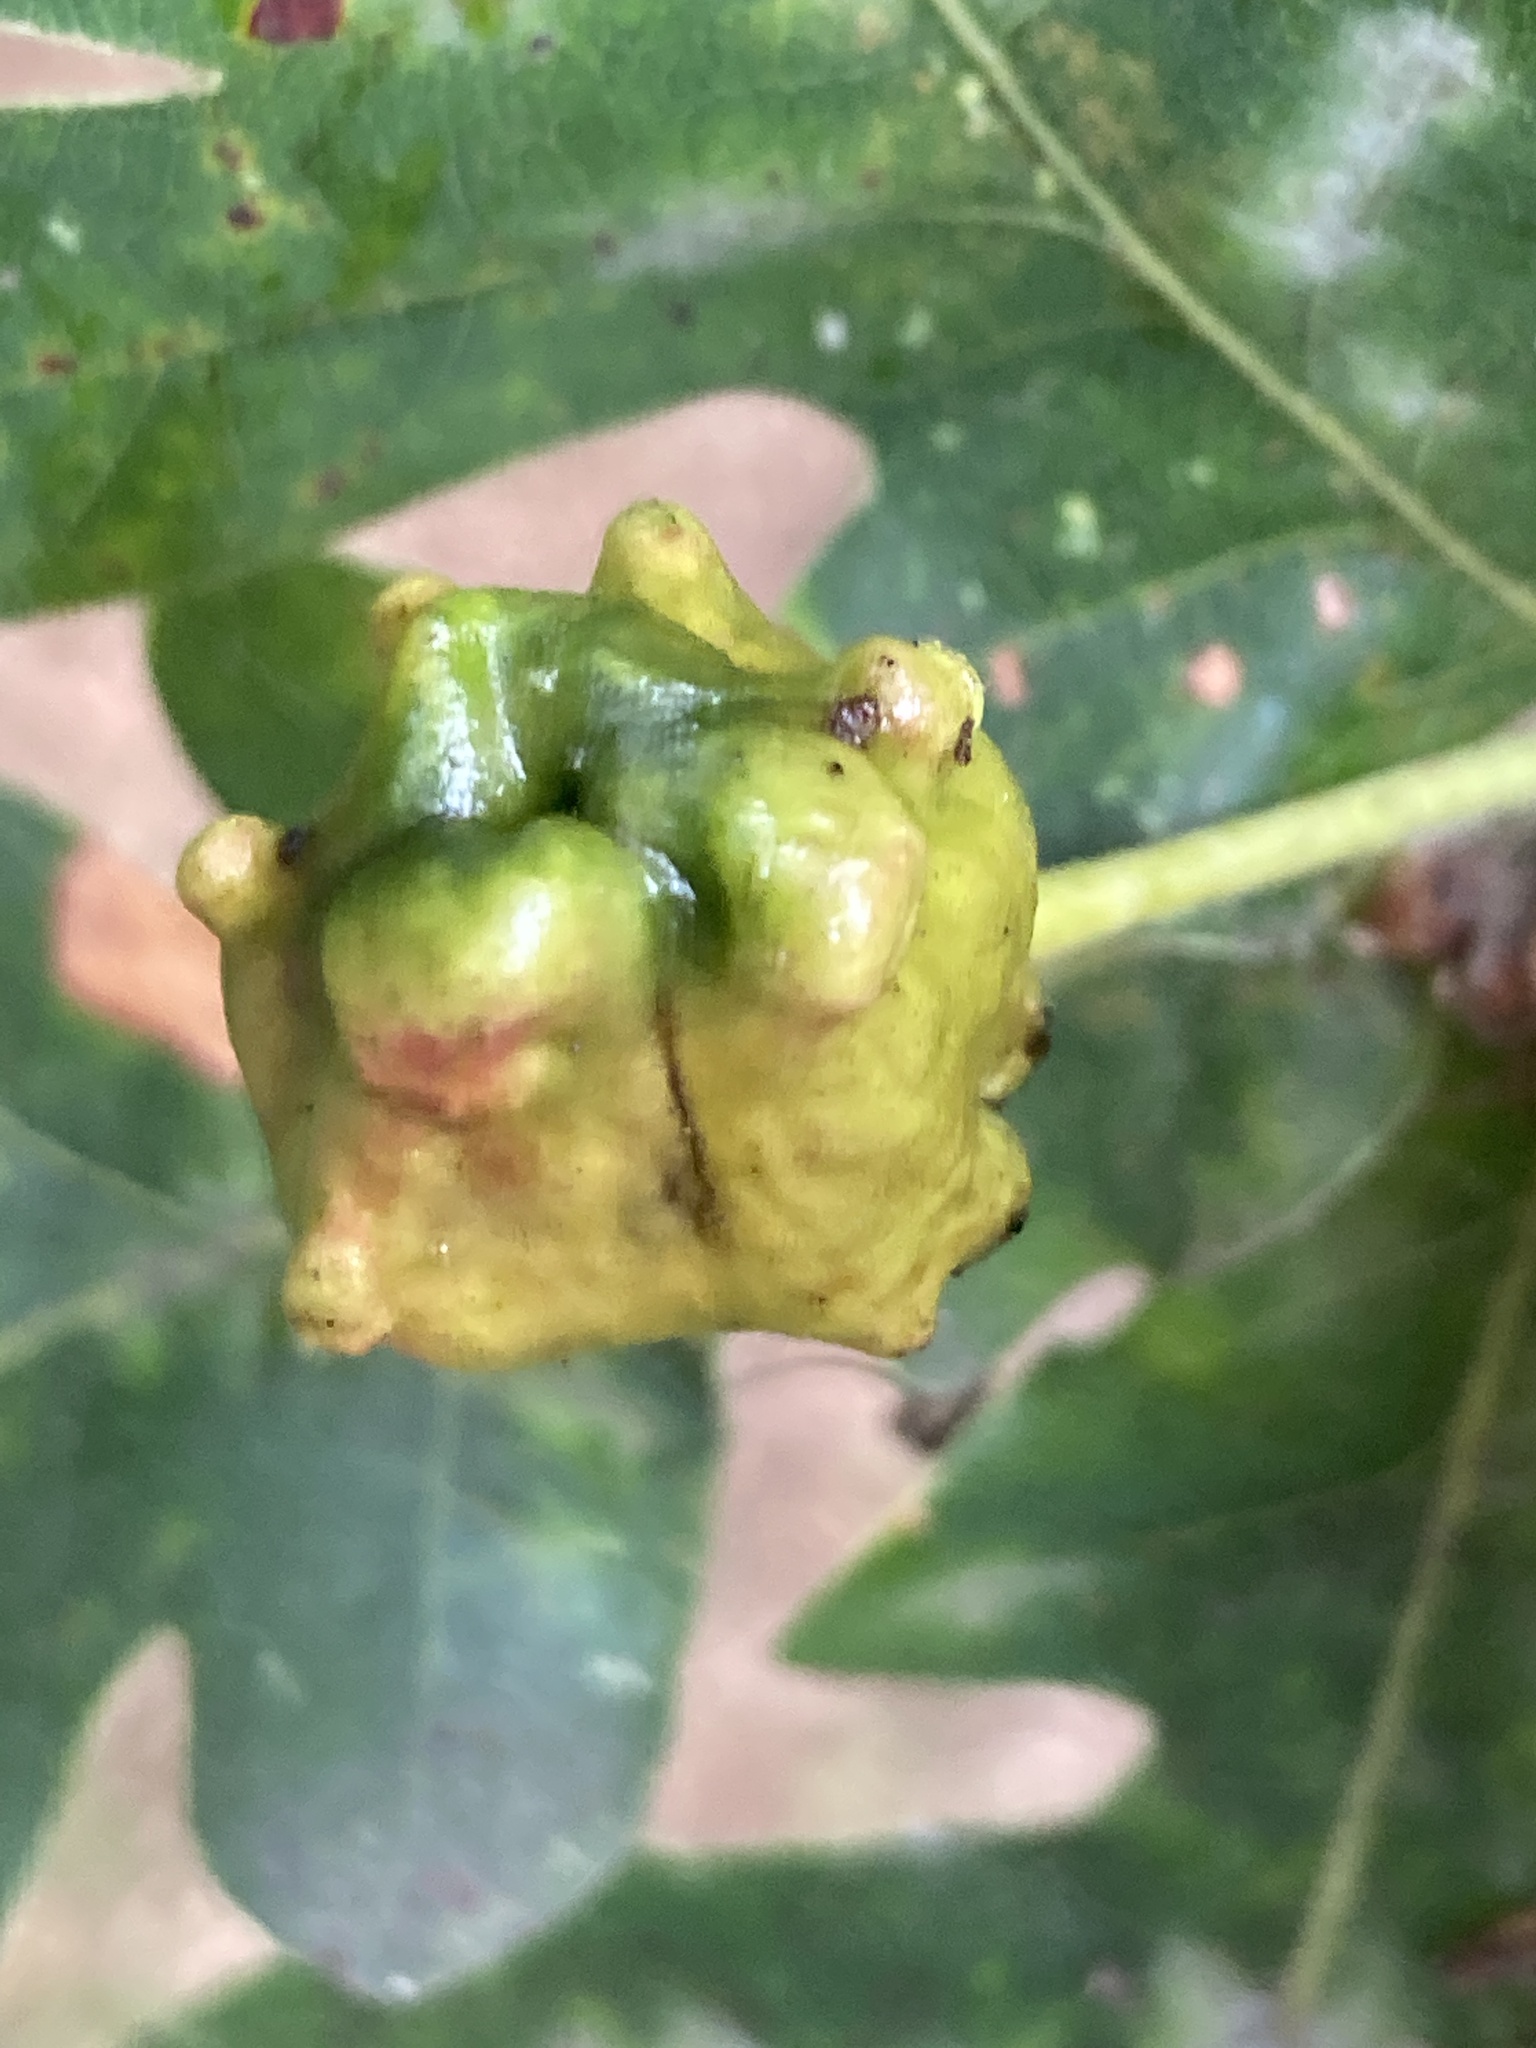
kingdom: Animalia
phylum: Arthropoda
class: Insecta
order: Hymenoptera
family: Cynipidae
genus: Andricus
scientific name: Andricus quercuscalicis
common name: Knopper gall
